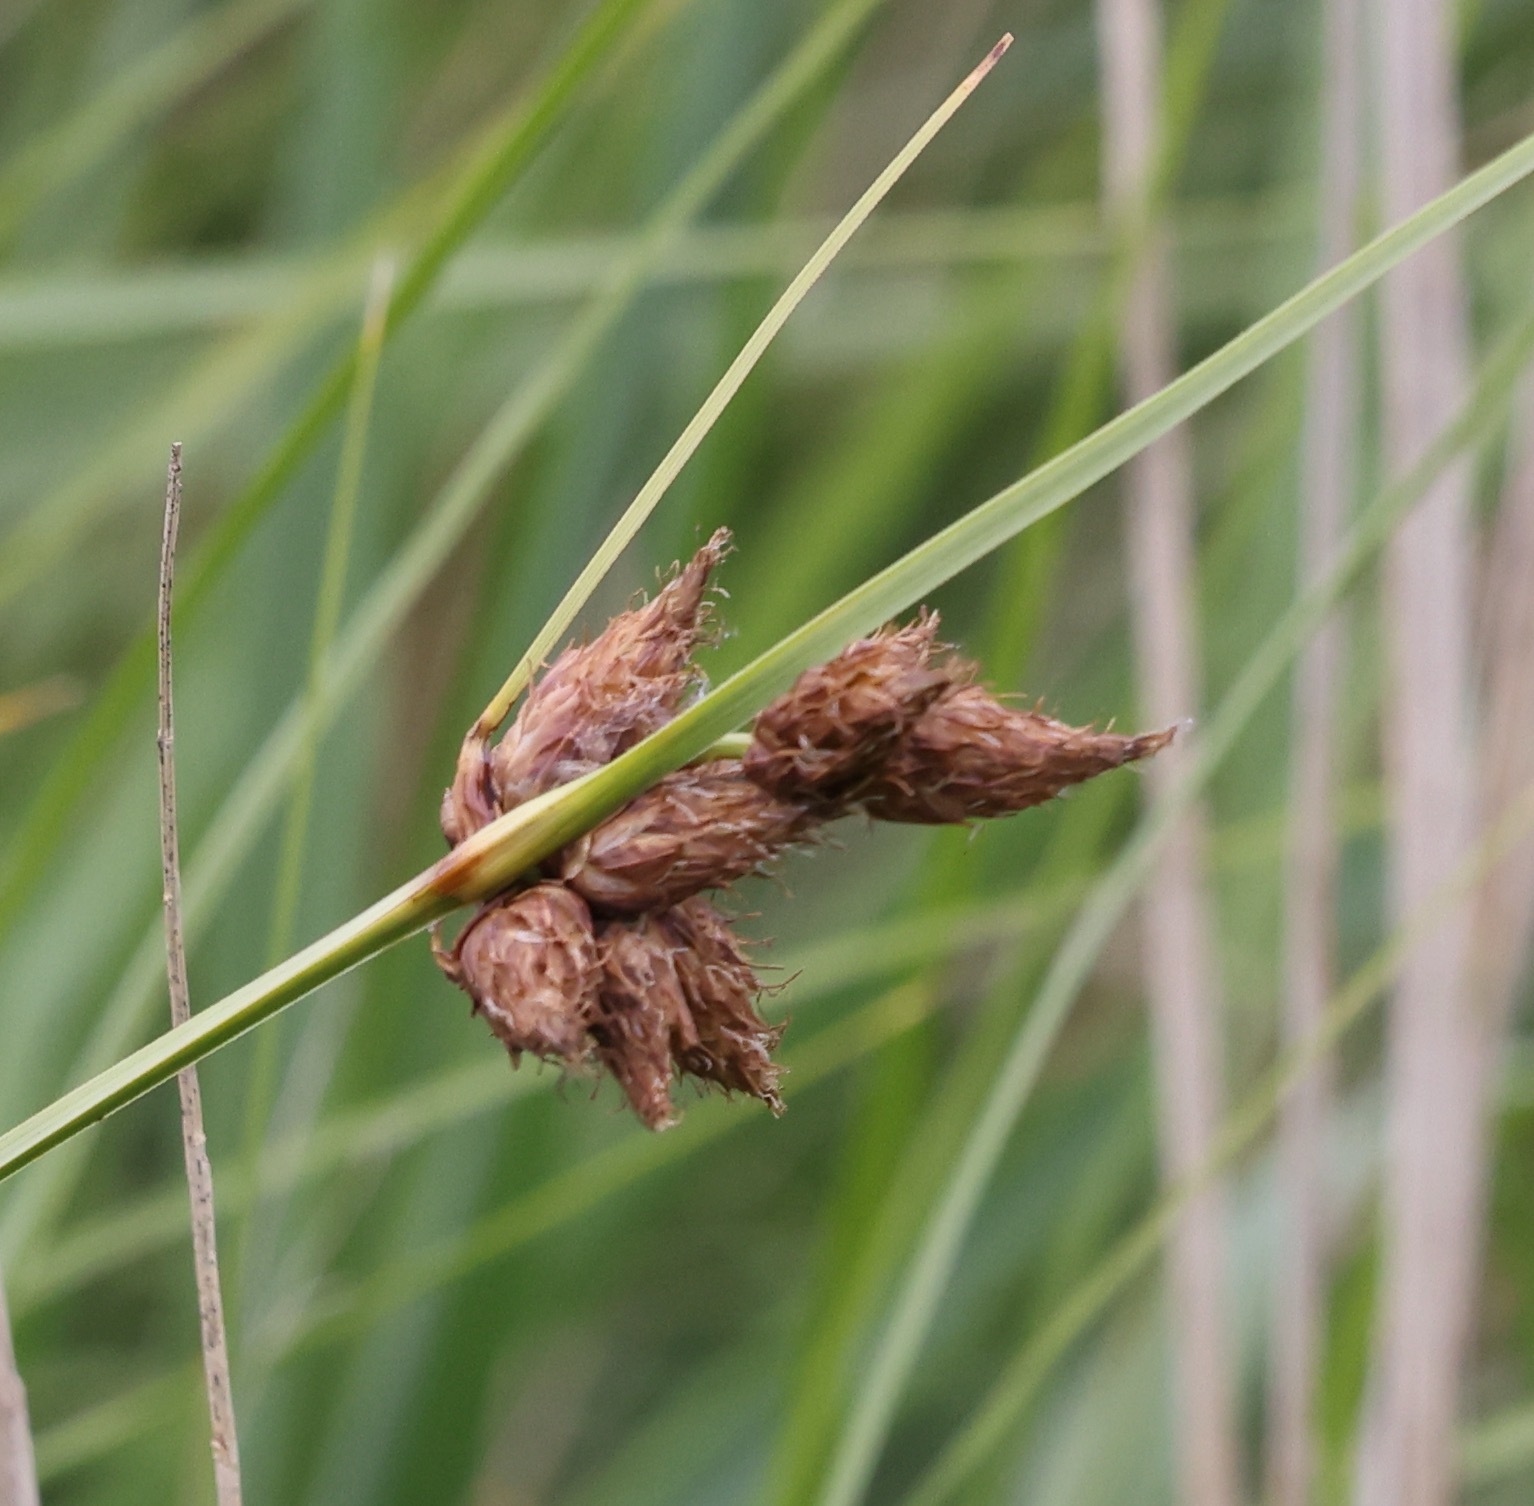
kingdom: Plantae
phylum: Tracheophyta
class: Liliopsida
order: Poales
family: Cyperaceae
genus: Bolboschoenus
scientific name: Bolboschoenus maritimus
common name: Sea club-rush
